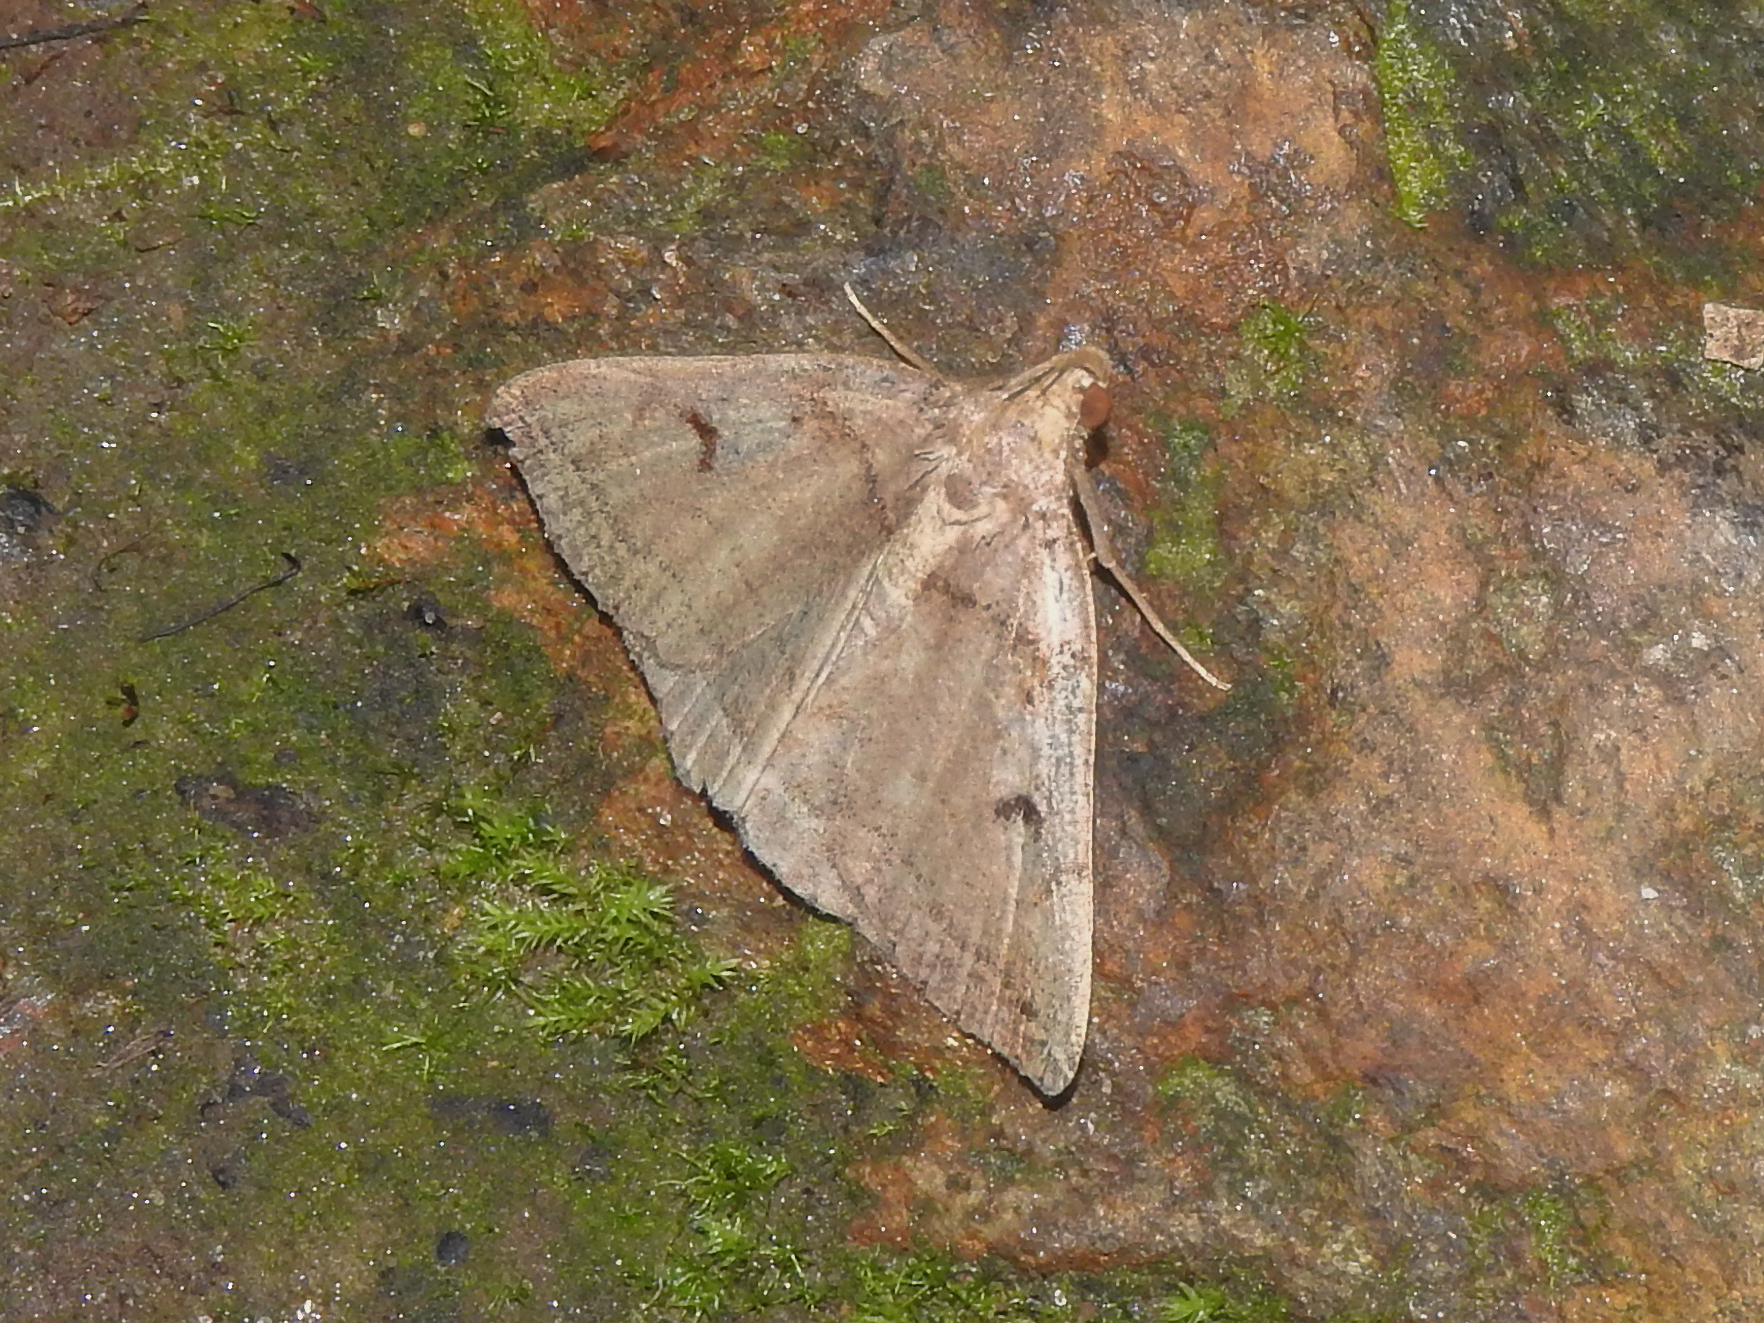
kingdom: Animalia
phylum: Arthropoda
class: Insecta
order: Lepidoptera
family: Erebidae
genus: Zanclognatha
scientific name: Zanclognatha laevigata
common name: Variable fan-foot
